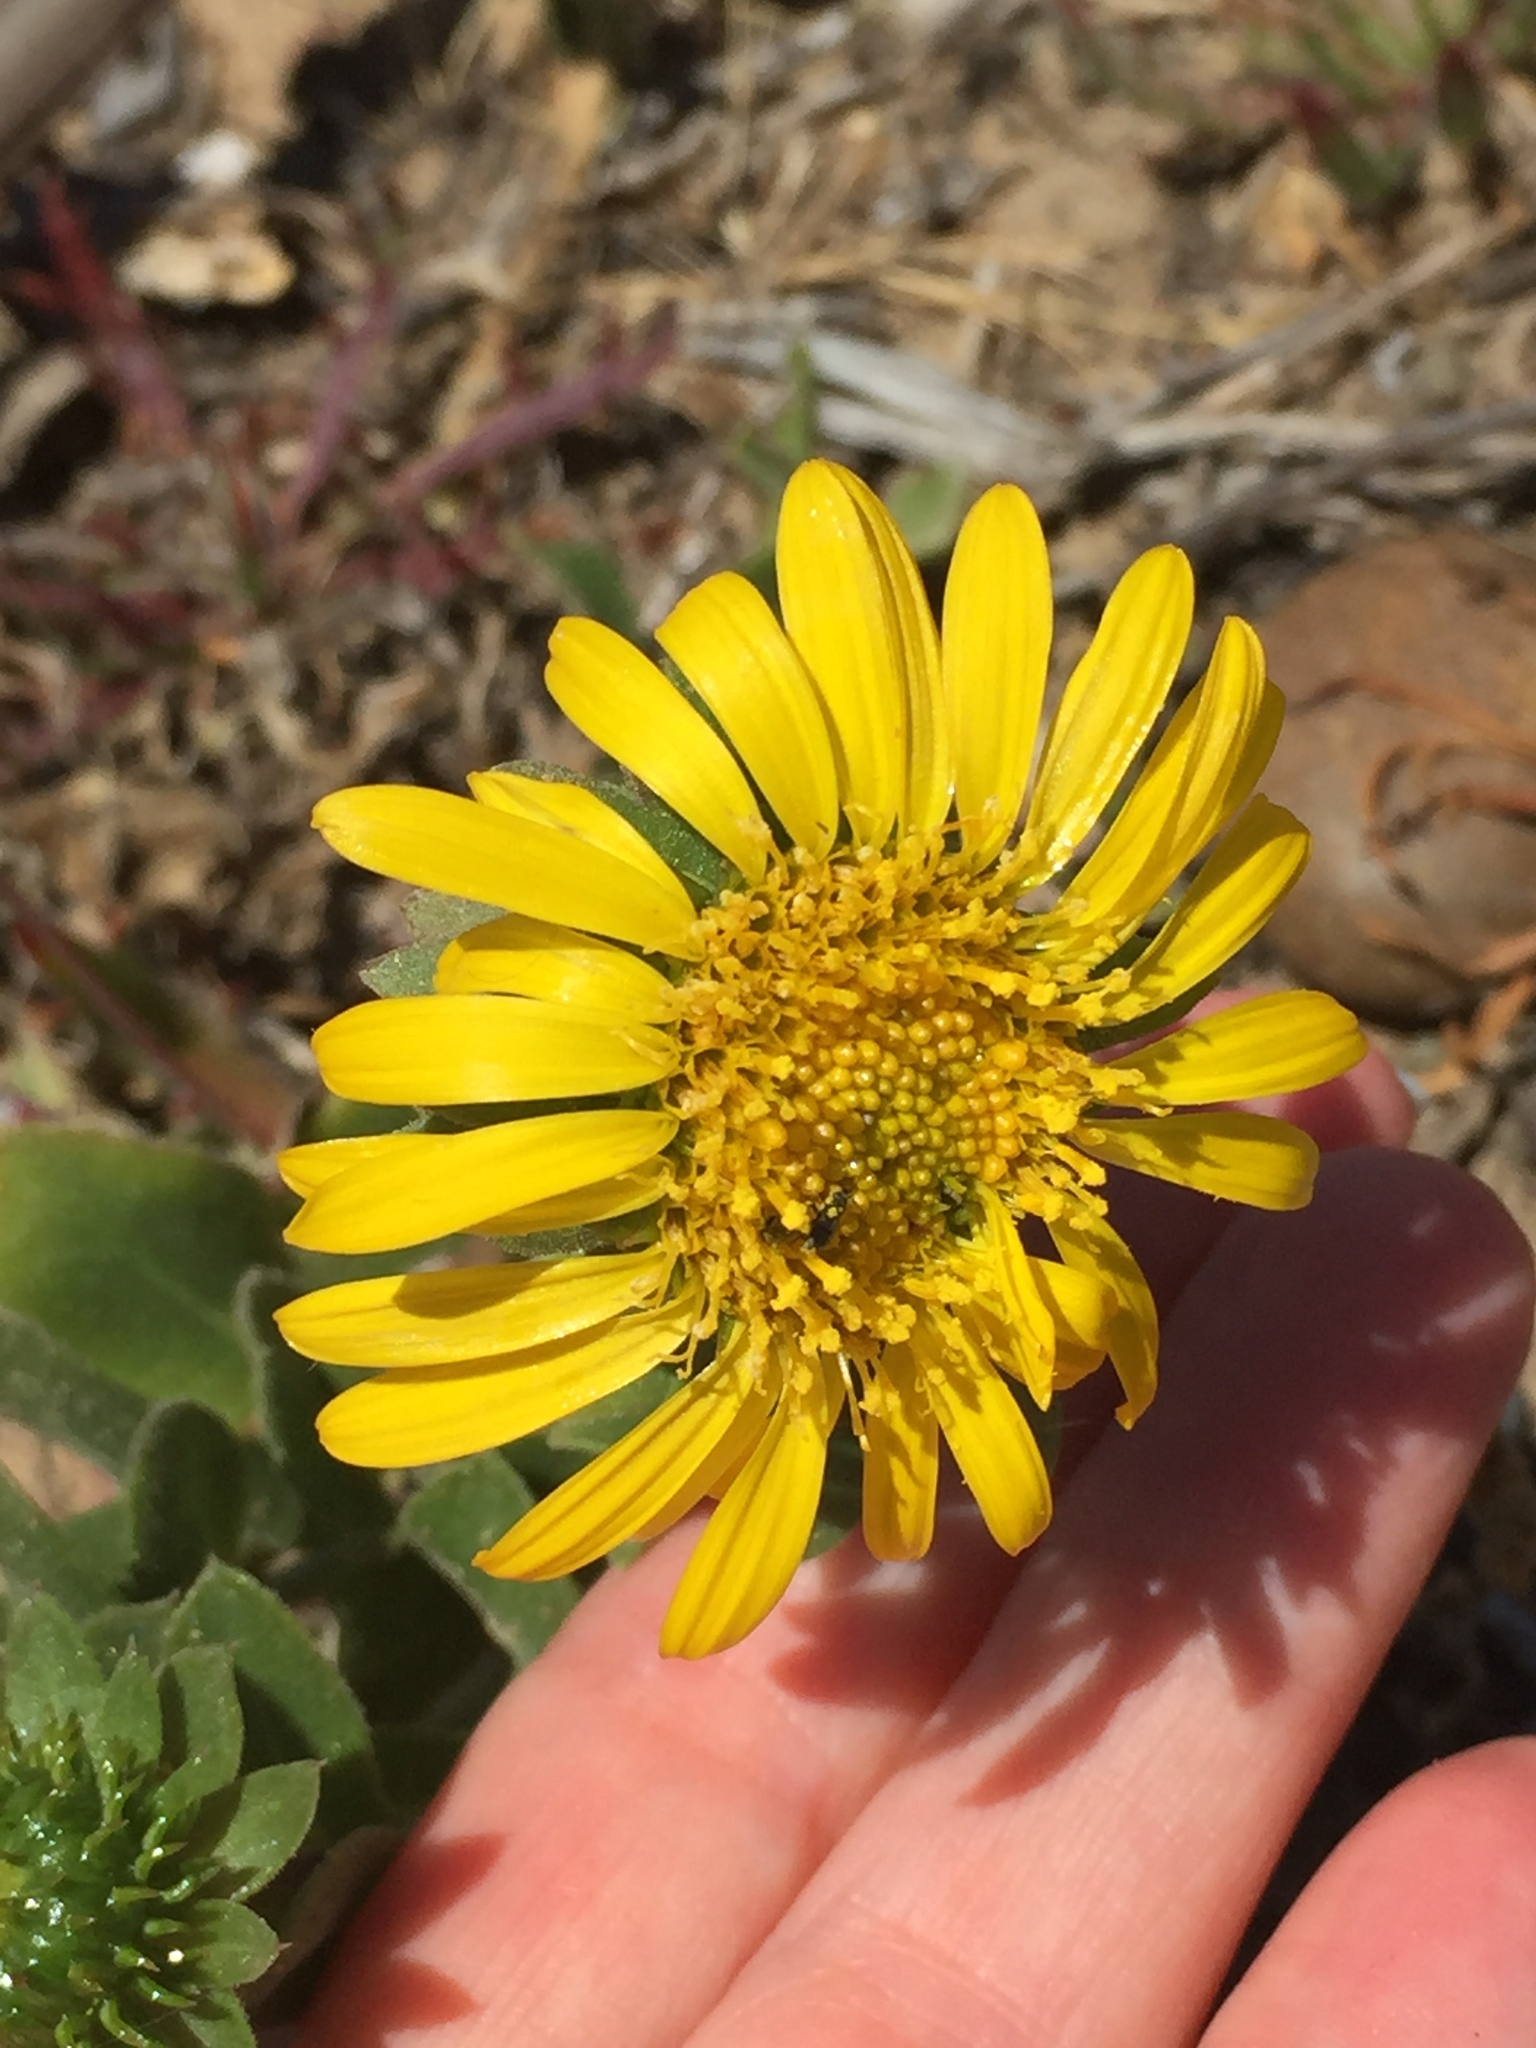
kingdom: Plantae
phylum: Tracheophyta
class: Magnoliopsida
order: Asterales
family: Asteraceae
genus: Grindelia
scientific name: Grindelia hirsutula
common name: Hairy gumweed
